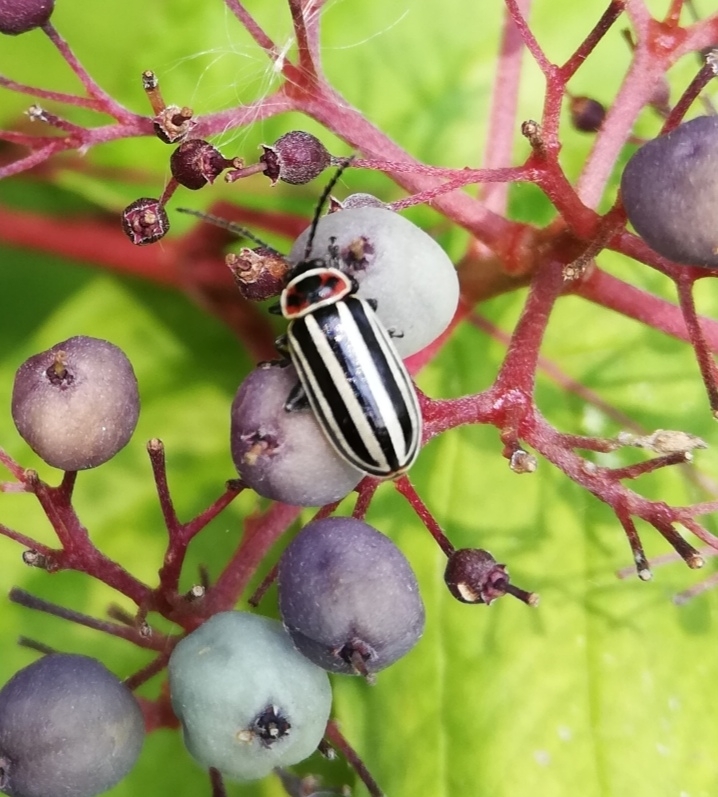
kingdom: Animalia
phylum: Arthropoda
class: Insecta
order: Coleoptera
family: Chrysomelidae
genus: Disonycha
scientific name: Disonycha procera
